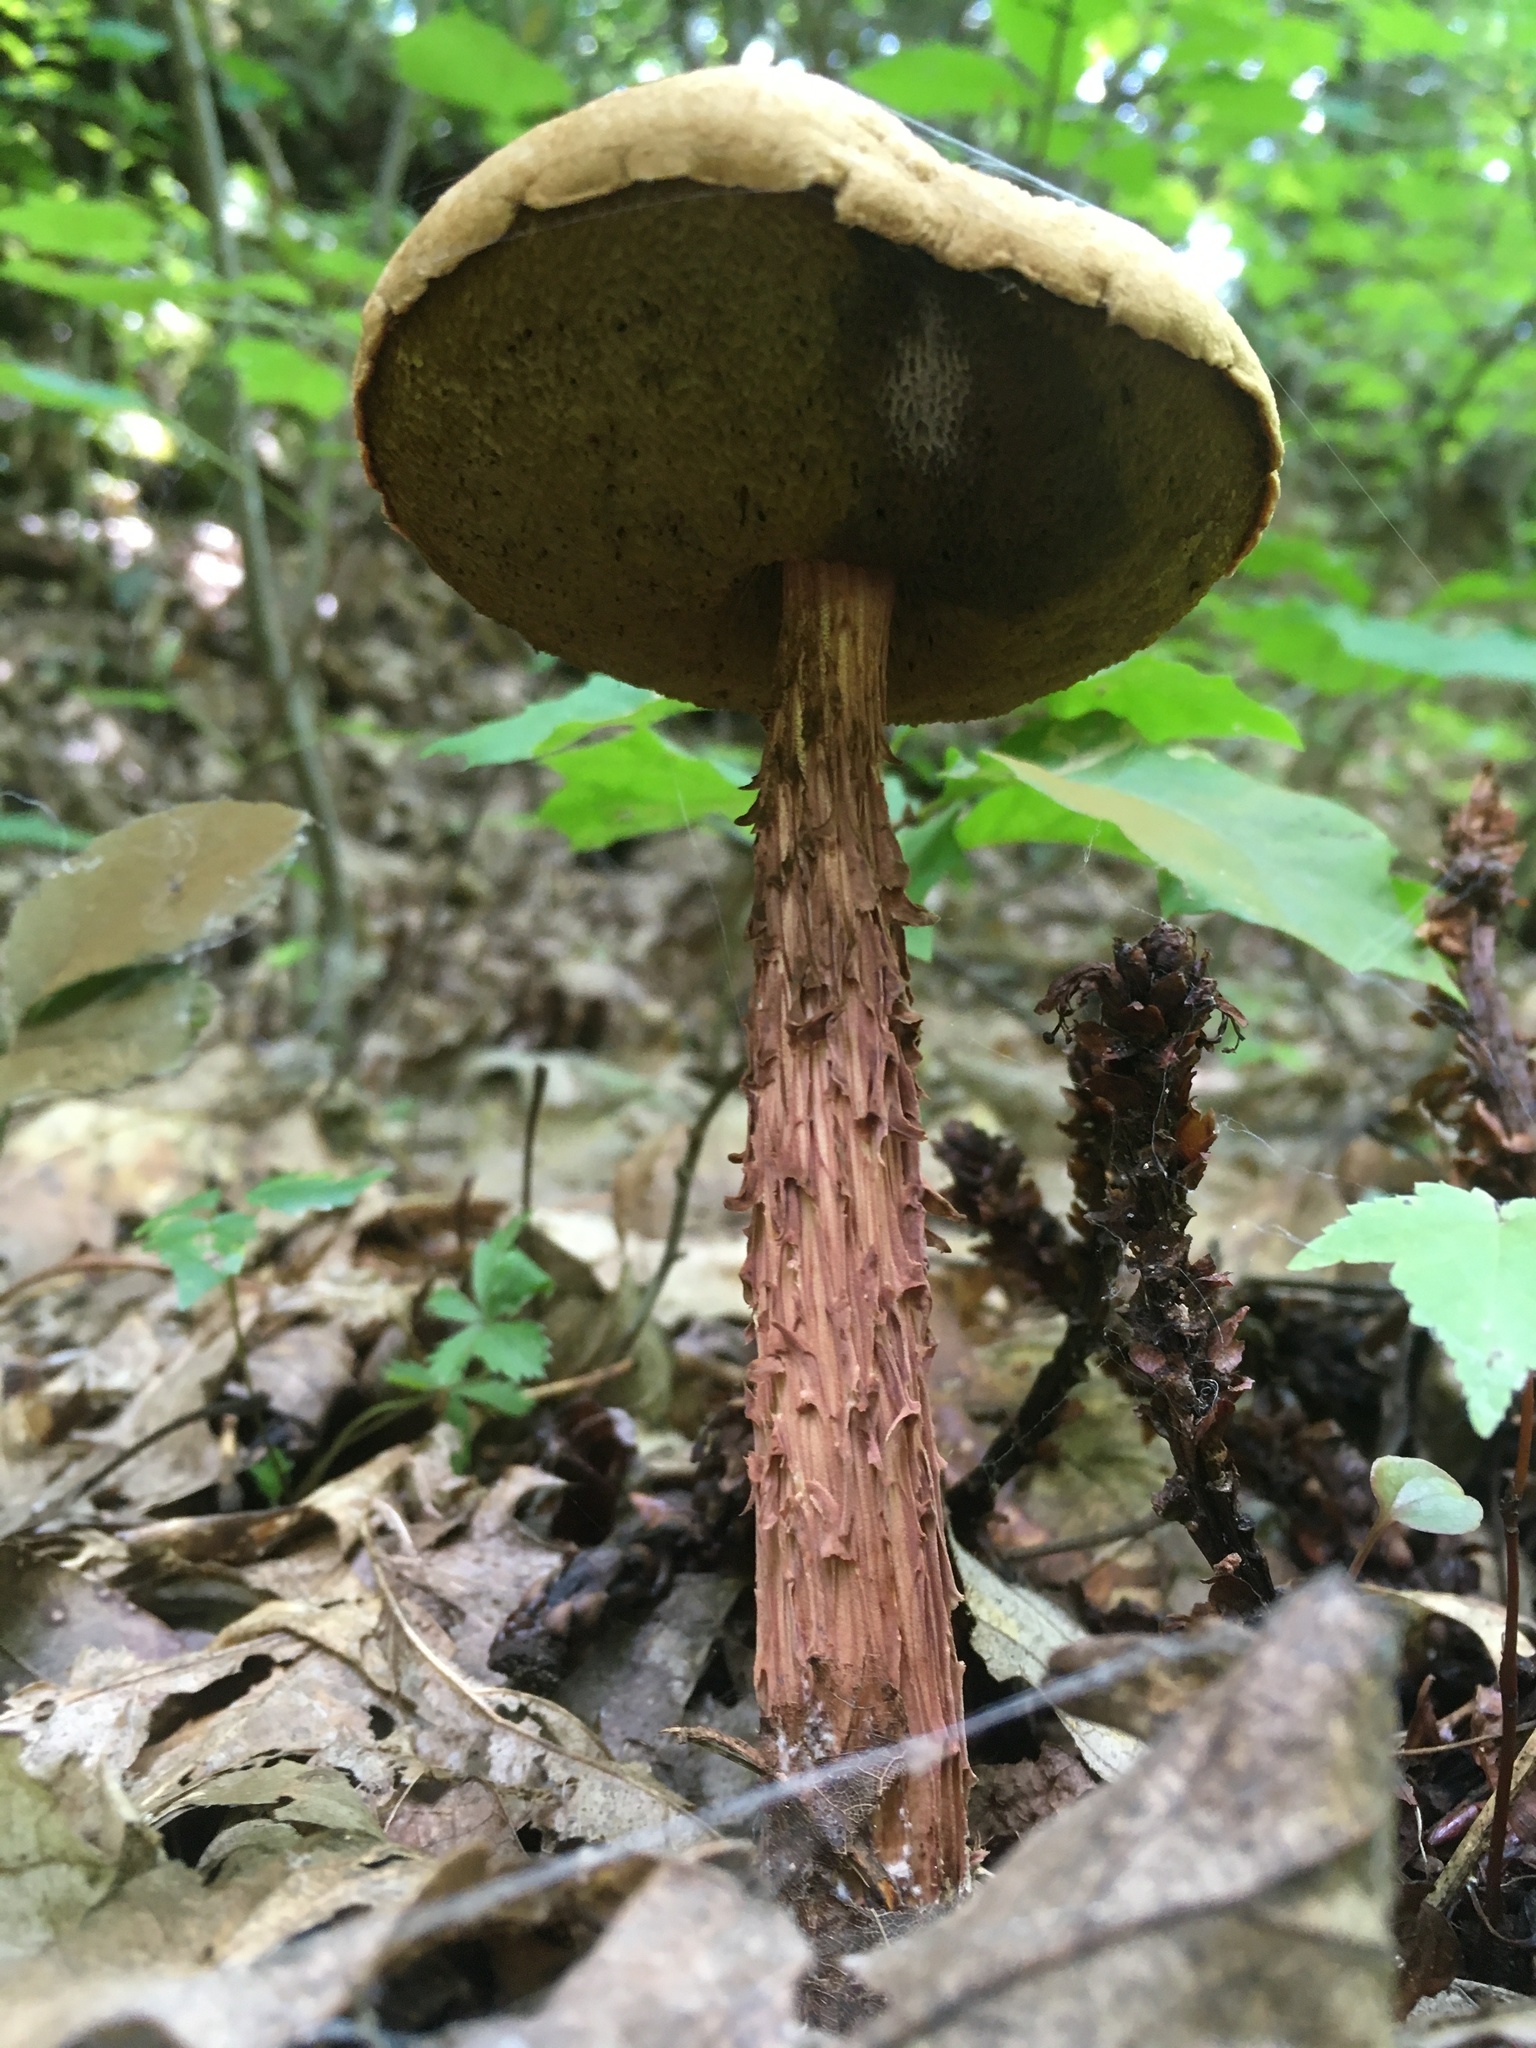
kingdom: Fungi
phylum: Basidiomycota
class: Agaricomycetes
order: Boletales
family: Boletaceae
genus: Aureoboletus
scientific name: Aureoboletus russellii
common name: Russell's bolete
